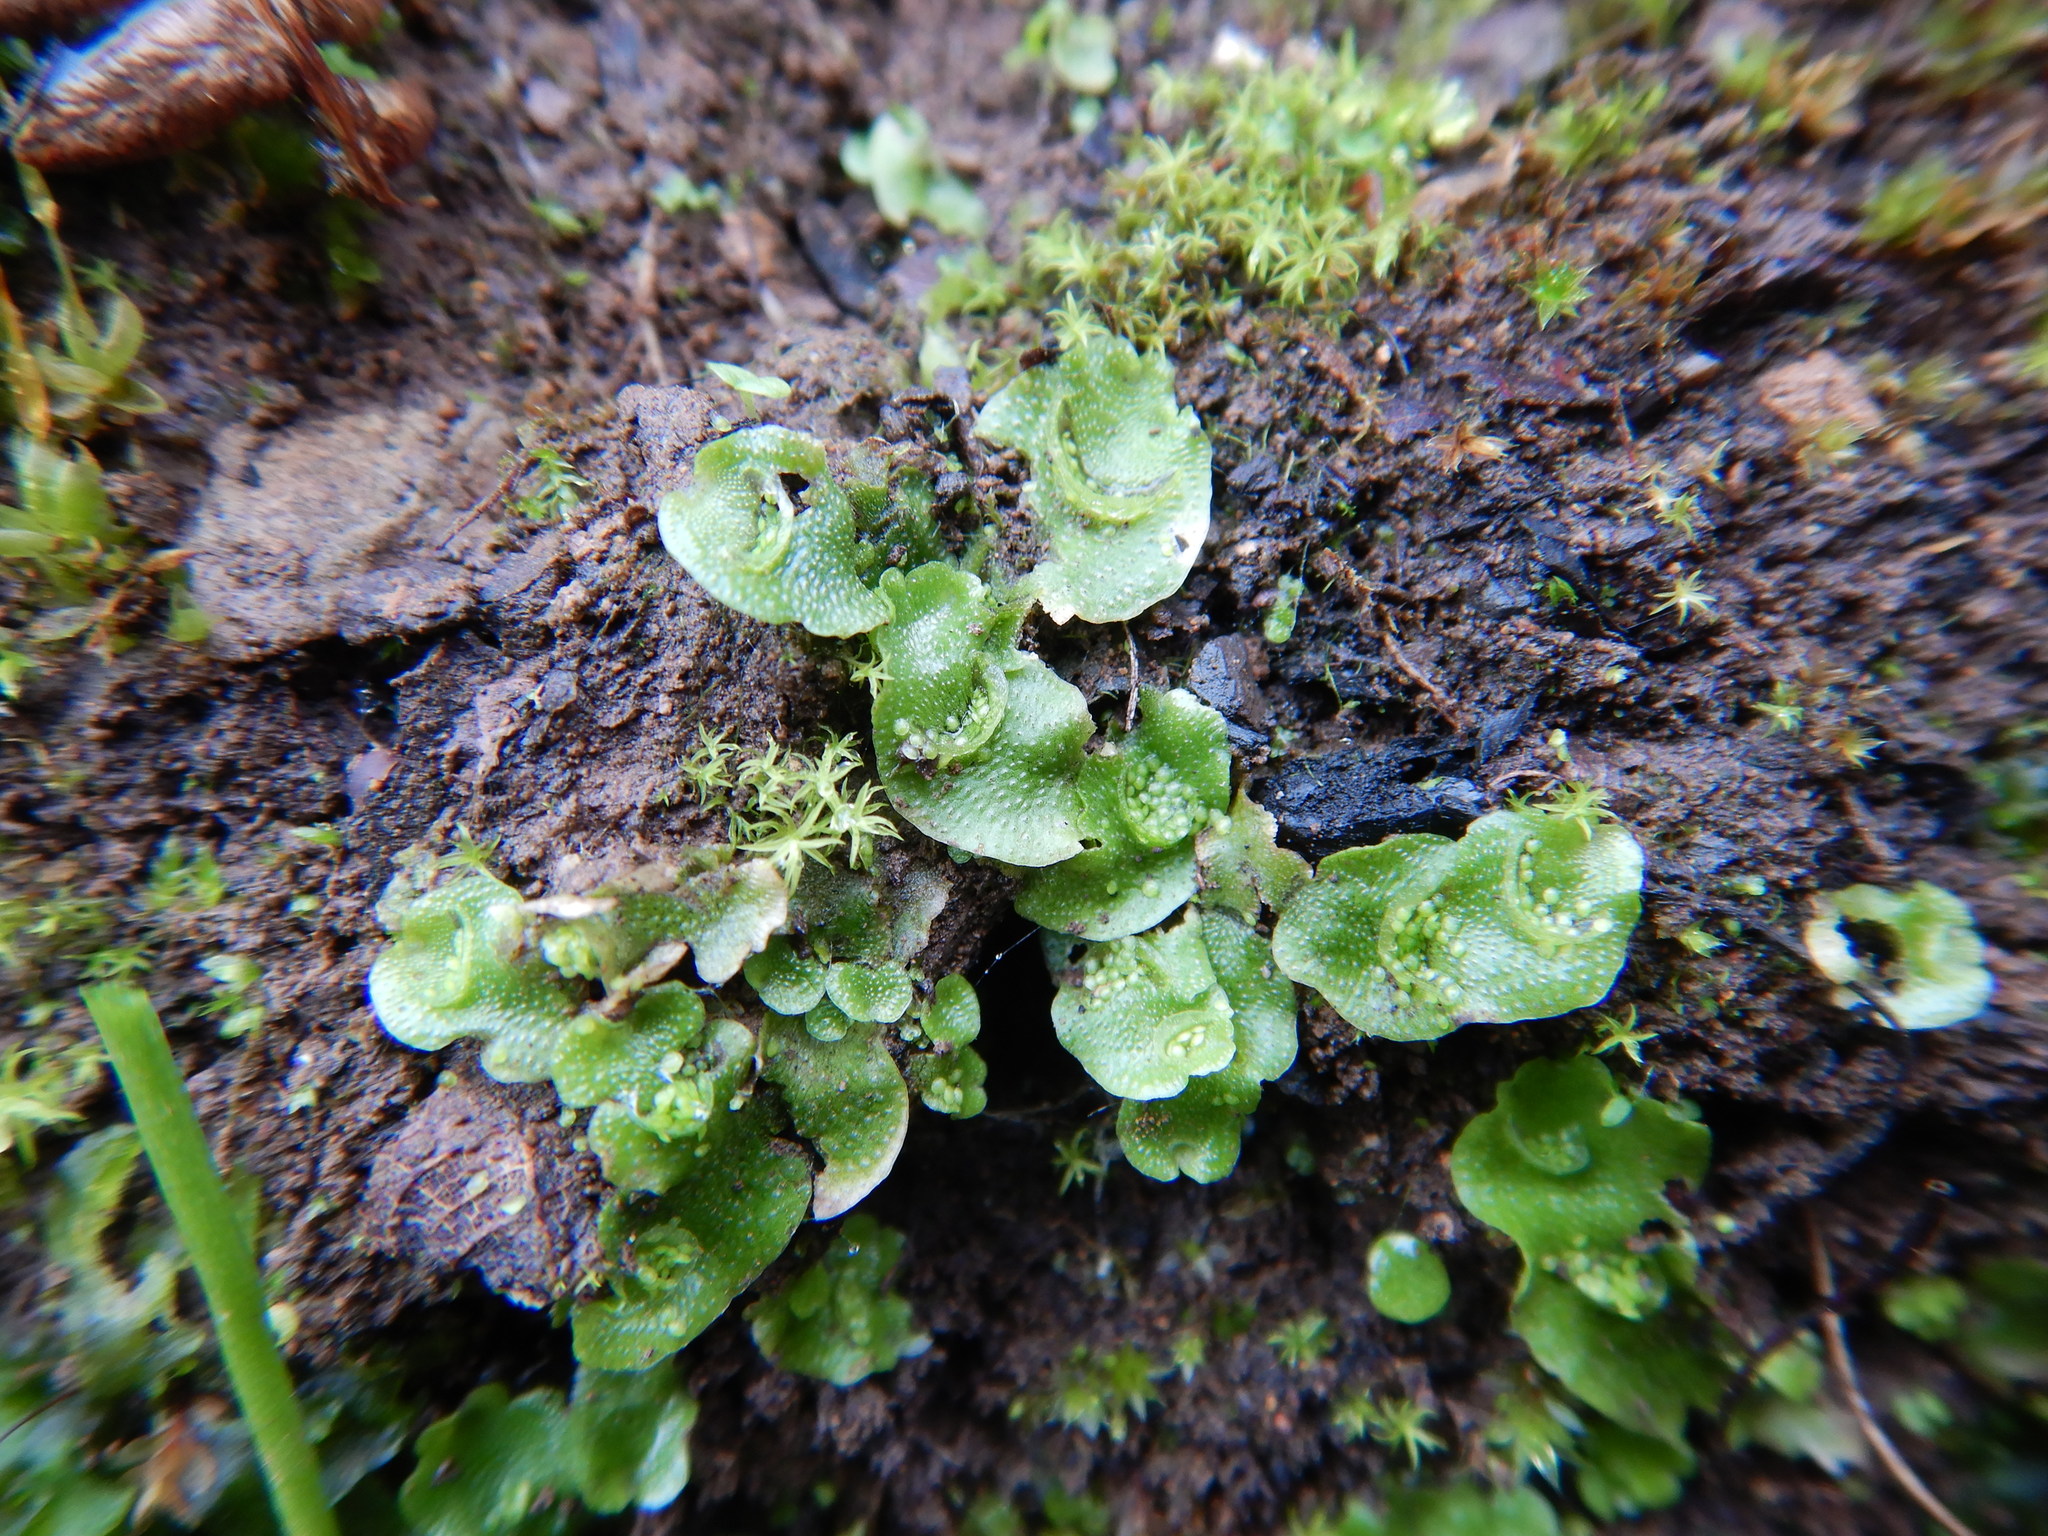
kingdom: Plantae
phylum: Marchantiophyta
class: Marchantiopsida
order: Lunulariales
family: Lunulariaceae
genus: Lunularia
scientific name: Lunularia cruciata
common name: Crescent-cup liverwort
